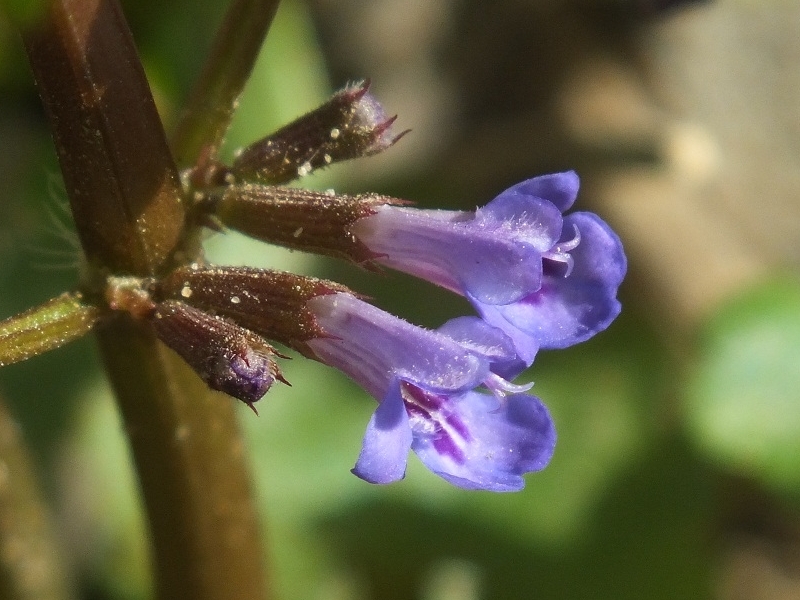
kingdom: Plantae
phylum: Tracheophyta
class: Magnoliopsida
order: Lamiales
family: Lamiaceae
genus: Glechoma
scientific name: Glechoma hederacea
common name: Ground ivy
